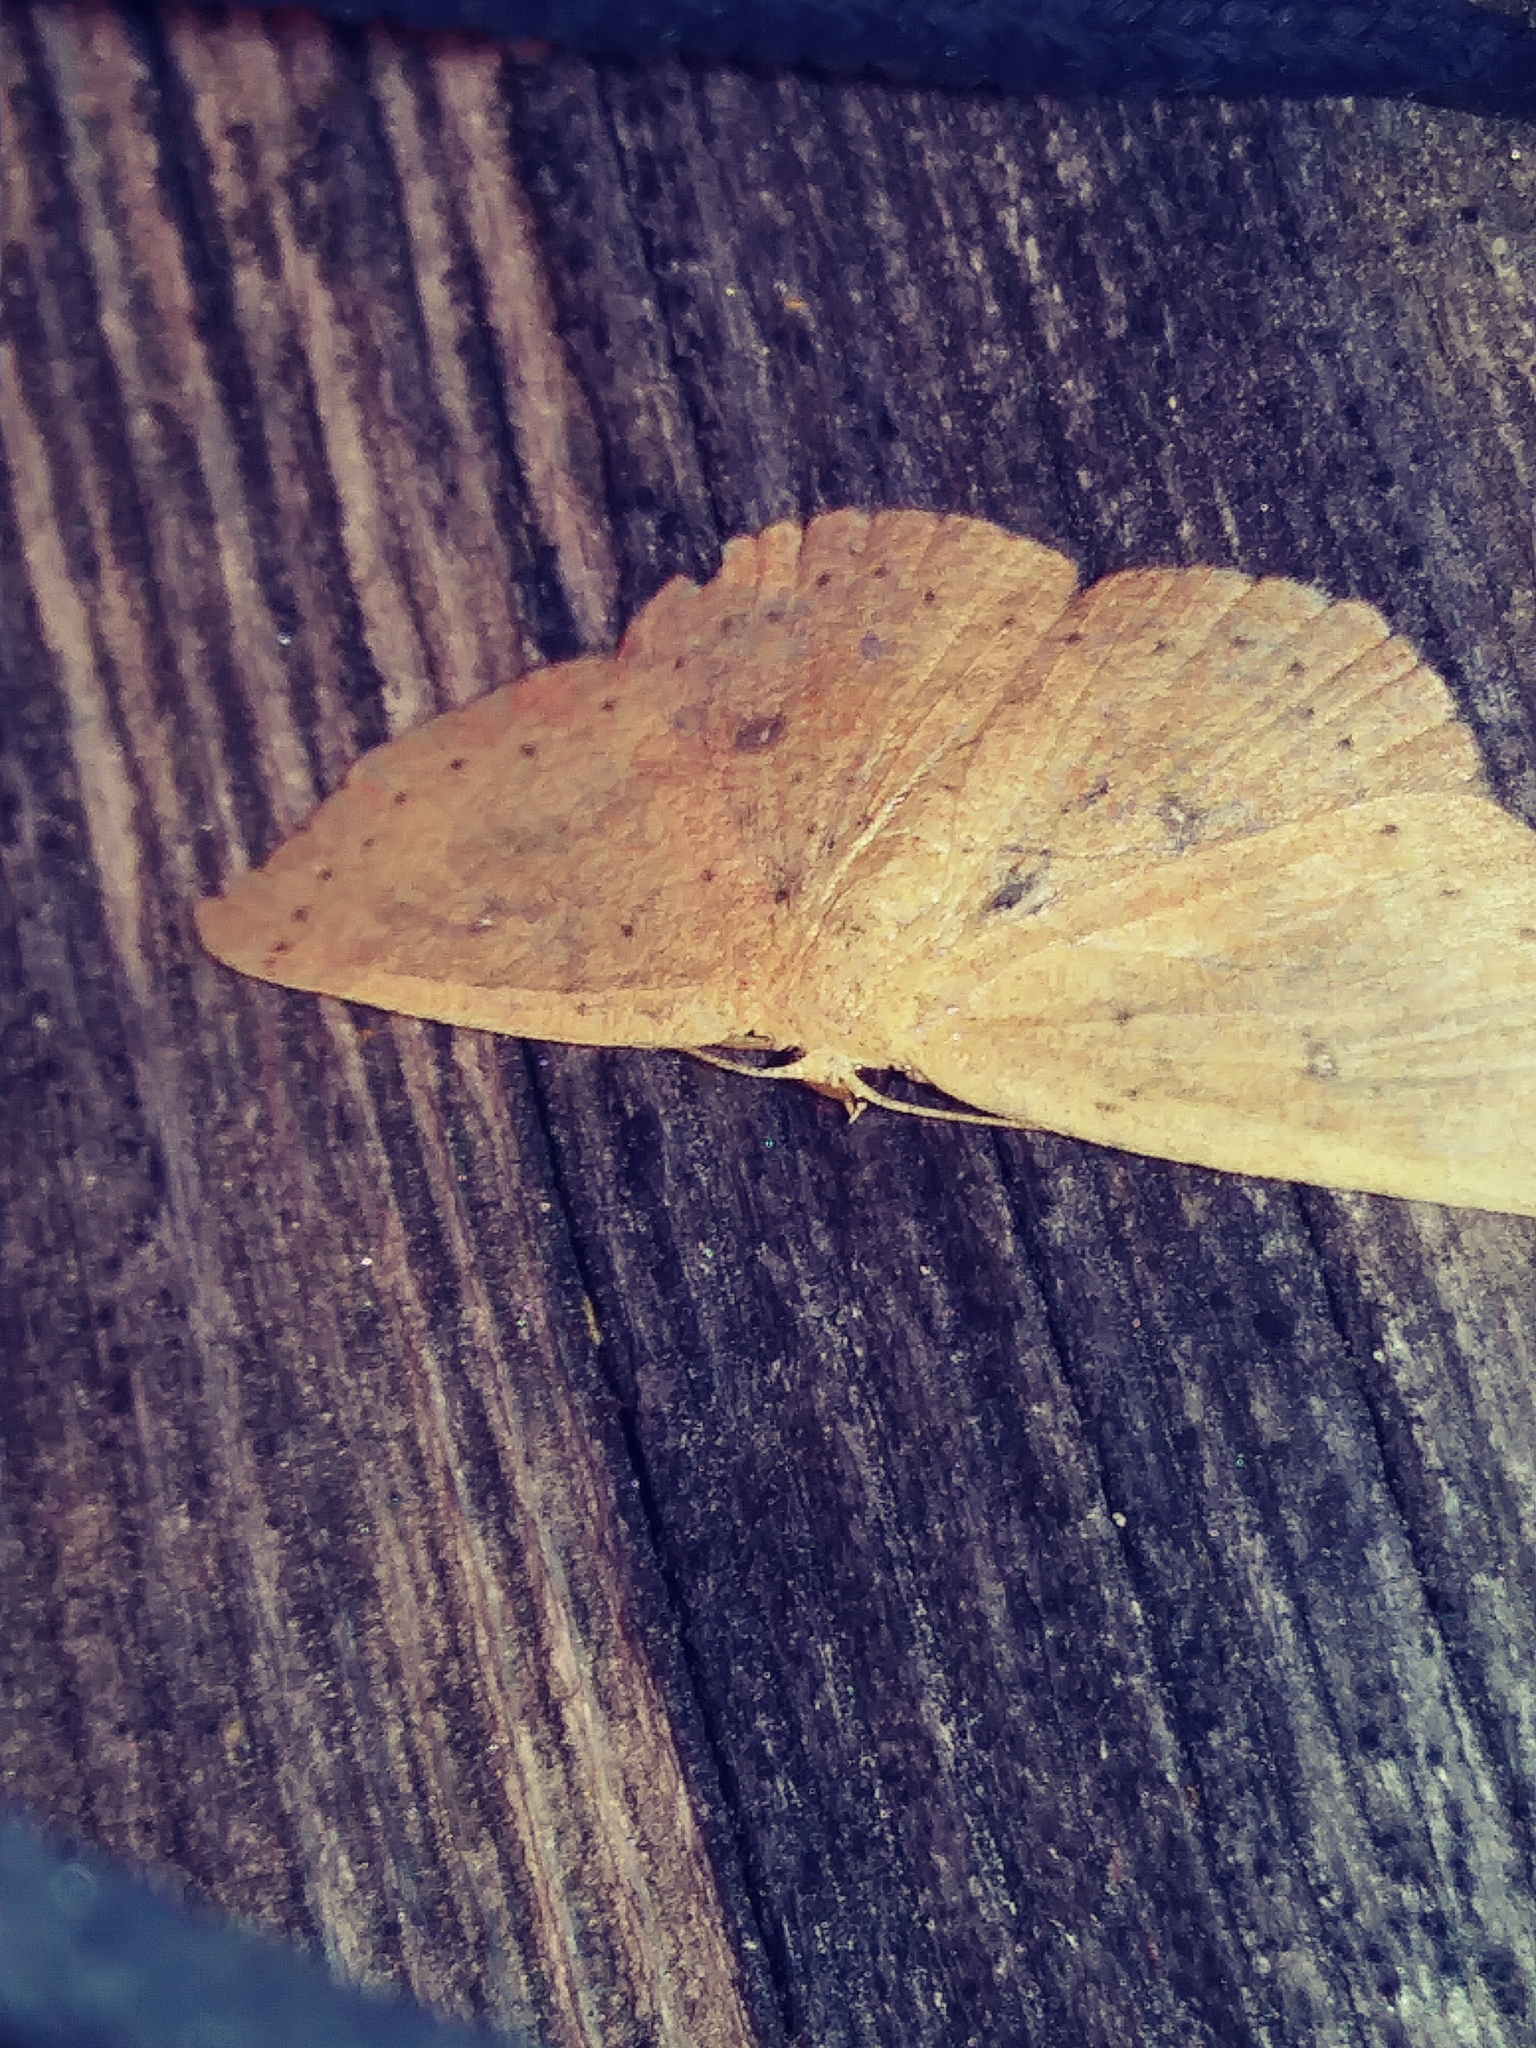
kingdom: Animalia
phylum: Arthropoda
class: Insecta
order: Lepidoptera
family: Geometridae
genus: Cyclophora
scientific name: Cyclophora packardi
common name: Packard's wave
